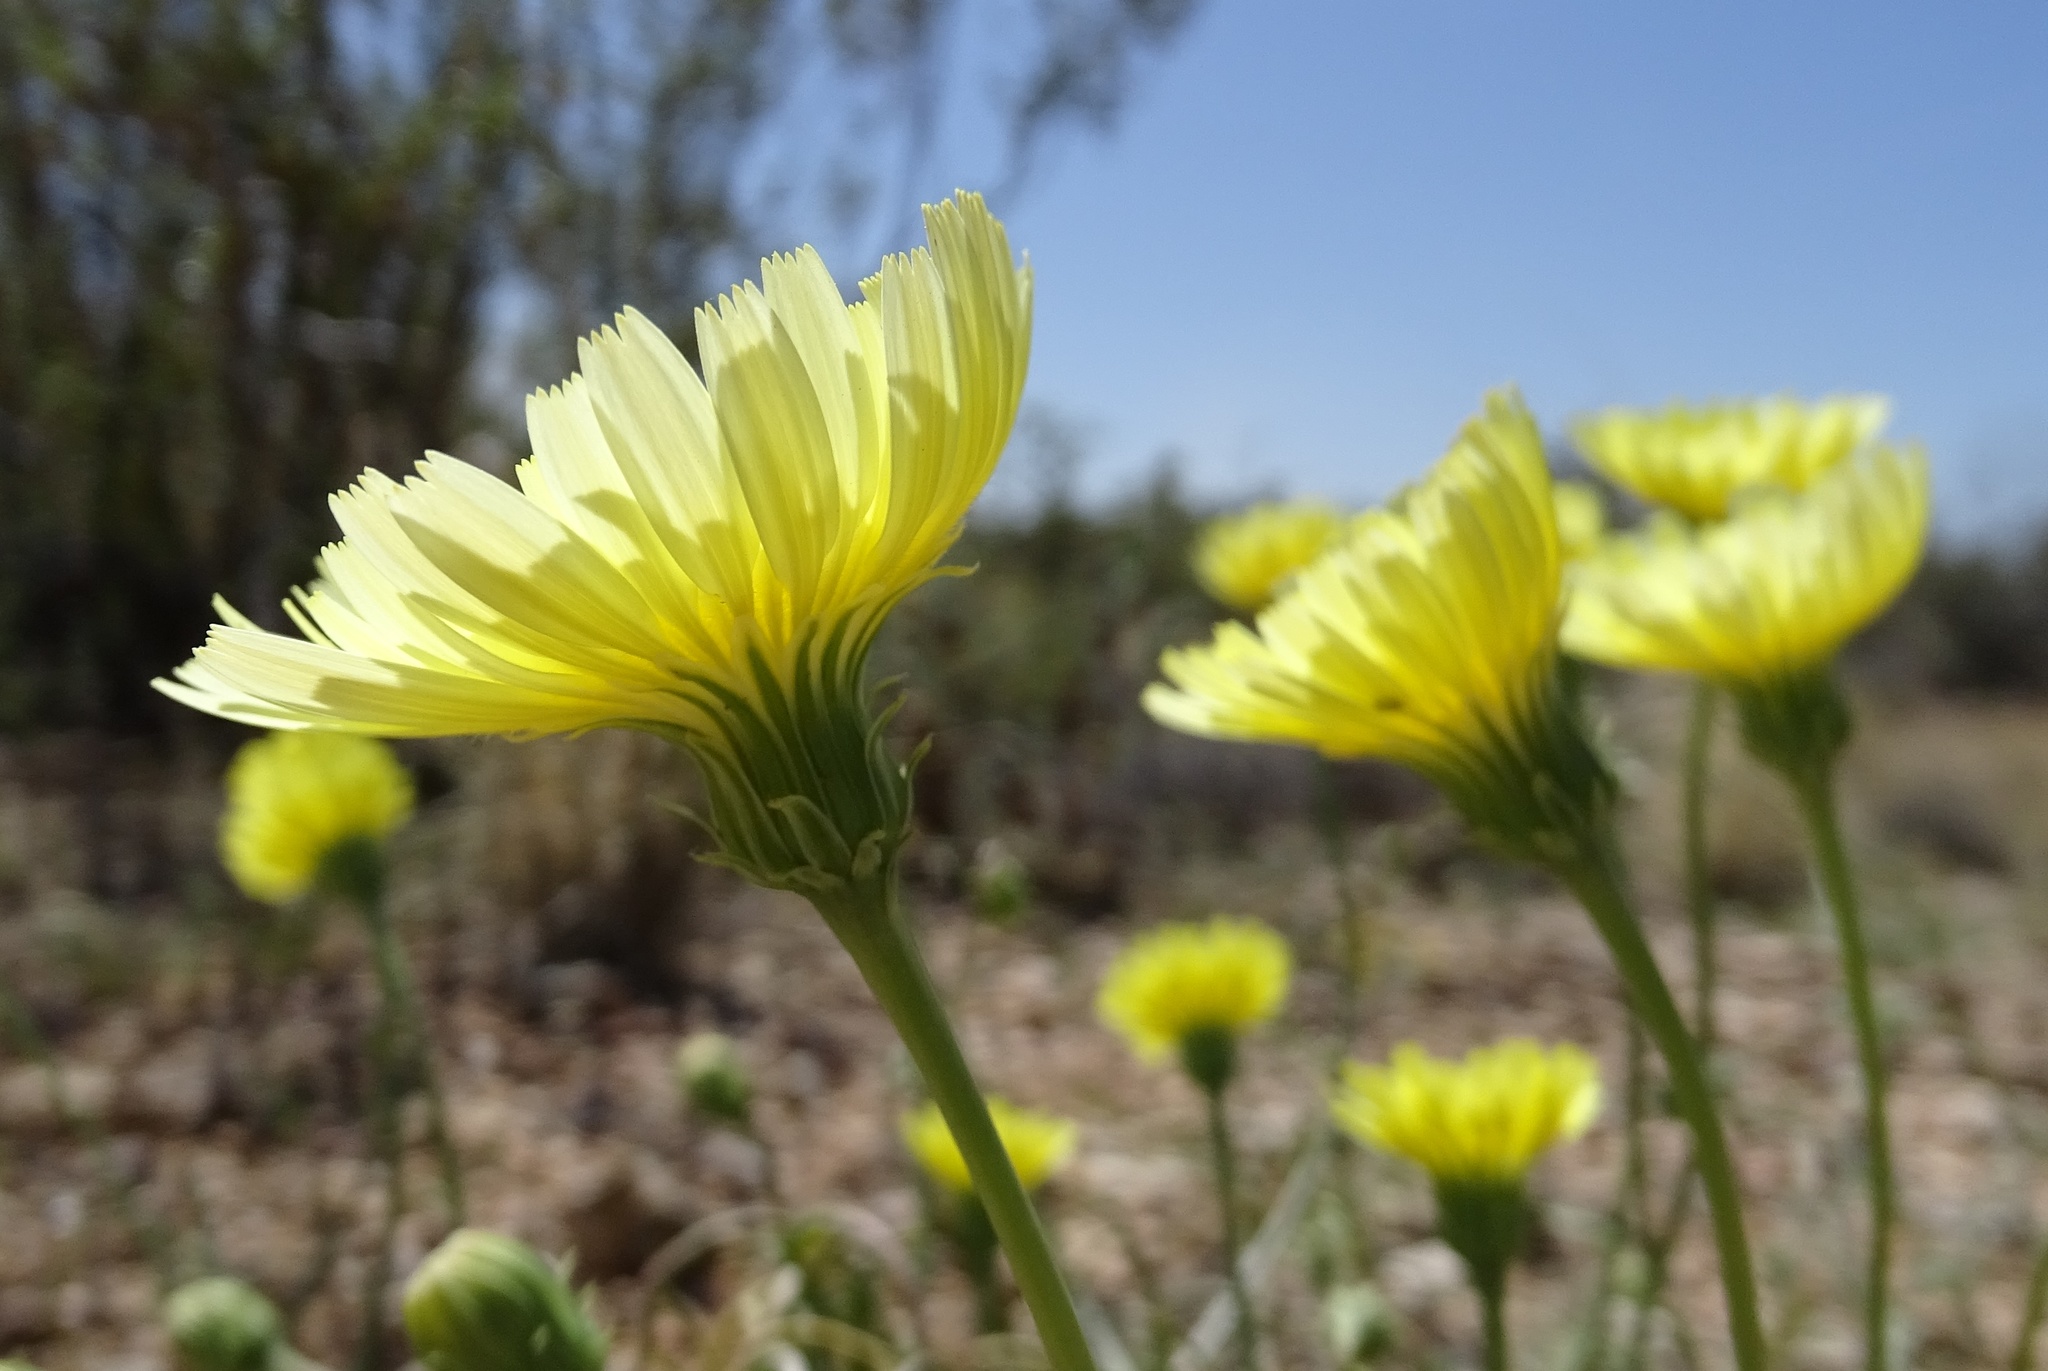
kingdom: Plantae
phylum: Tracheophyta
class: Magnoliopsida
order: Asterales
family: Asteraceae
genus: Malacothrix
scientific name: Malacothrix glabrata
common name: Smooth desert-dandelion
